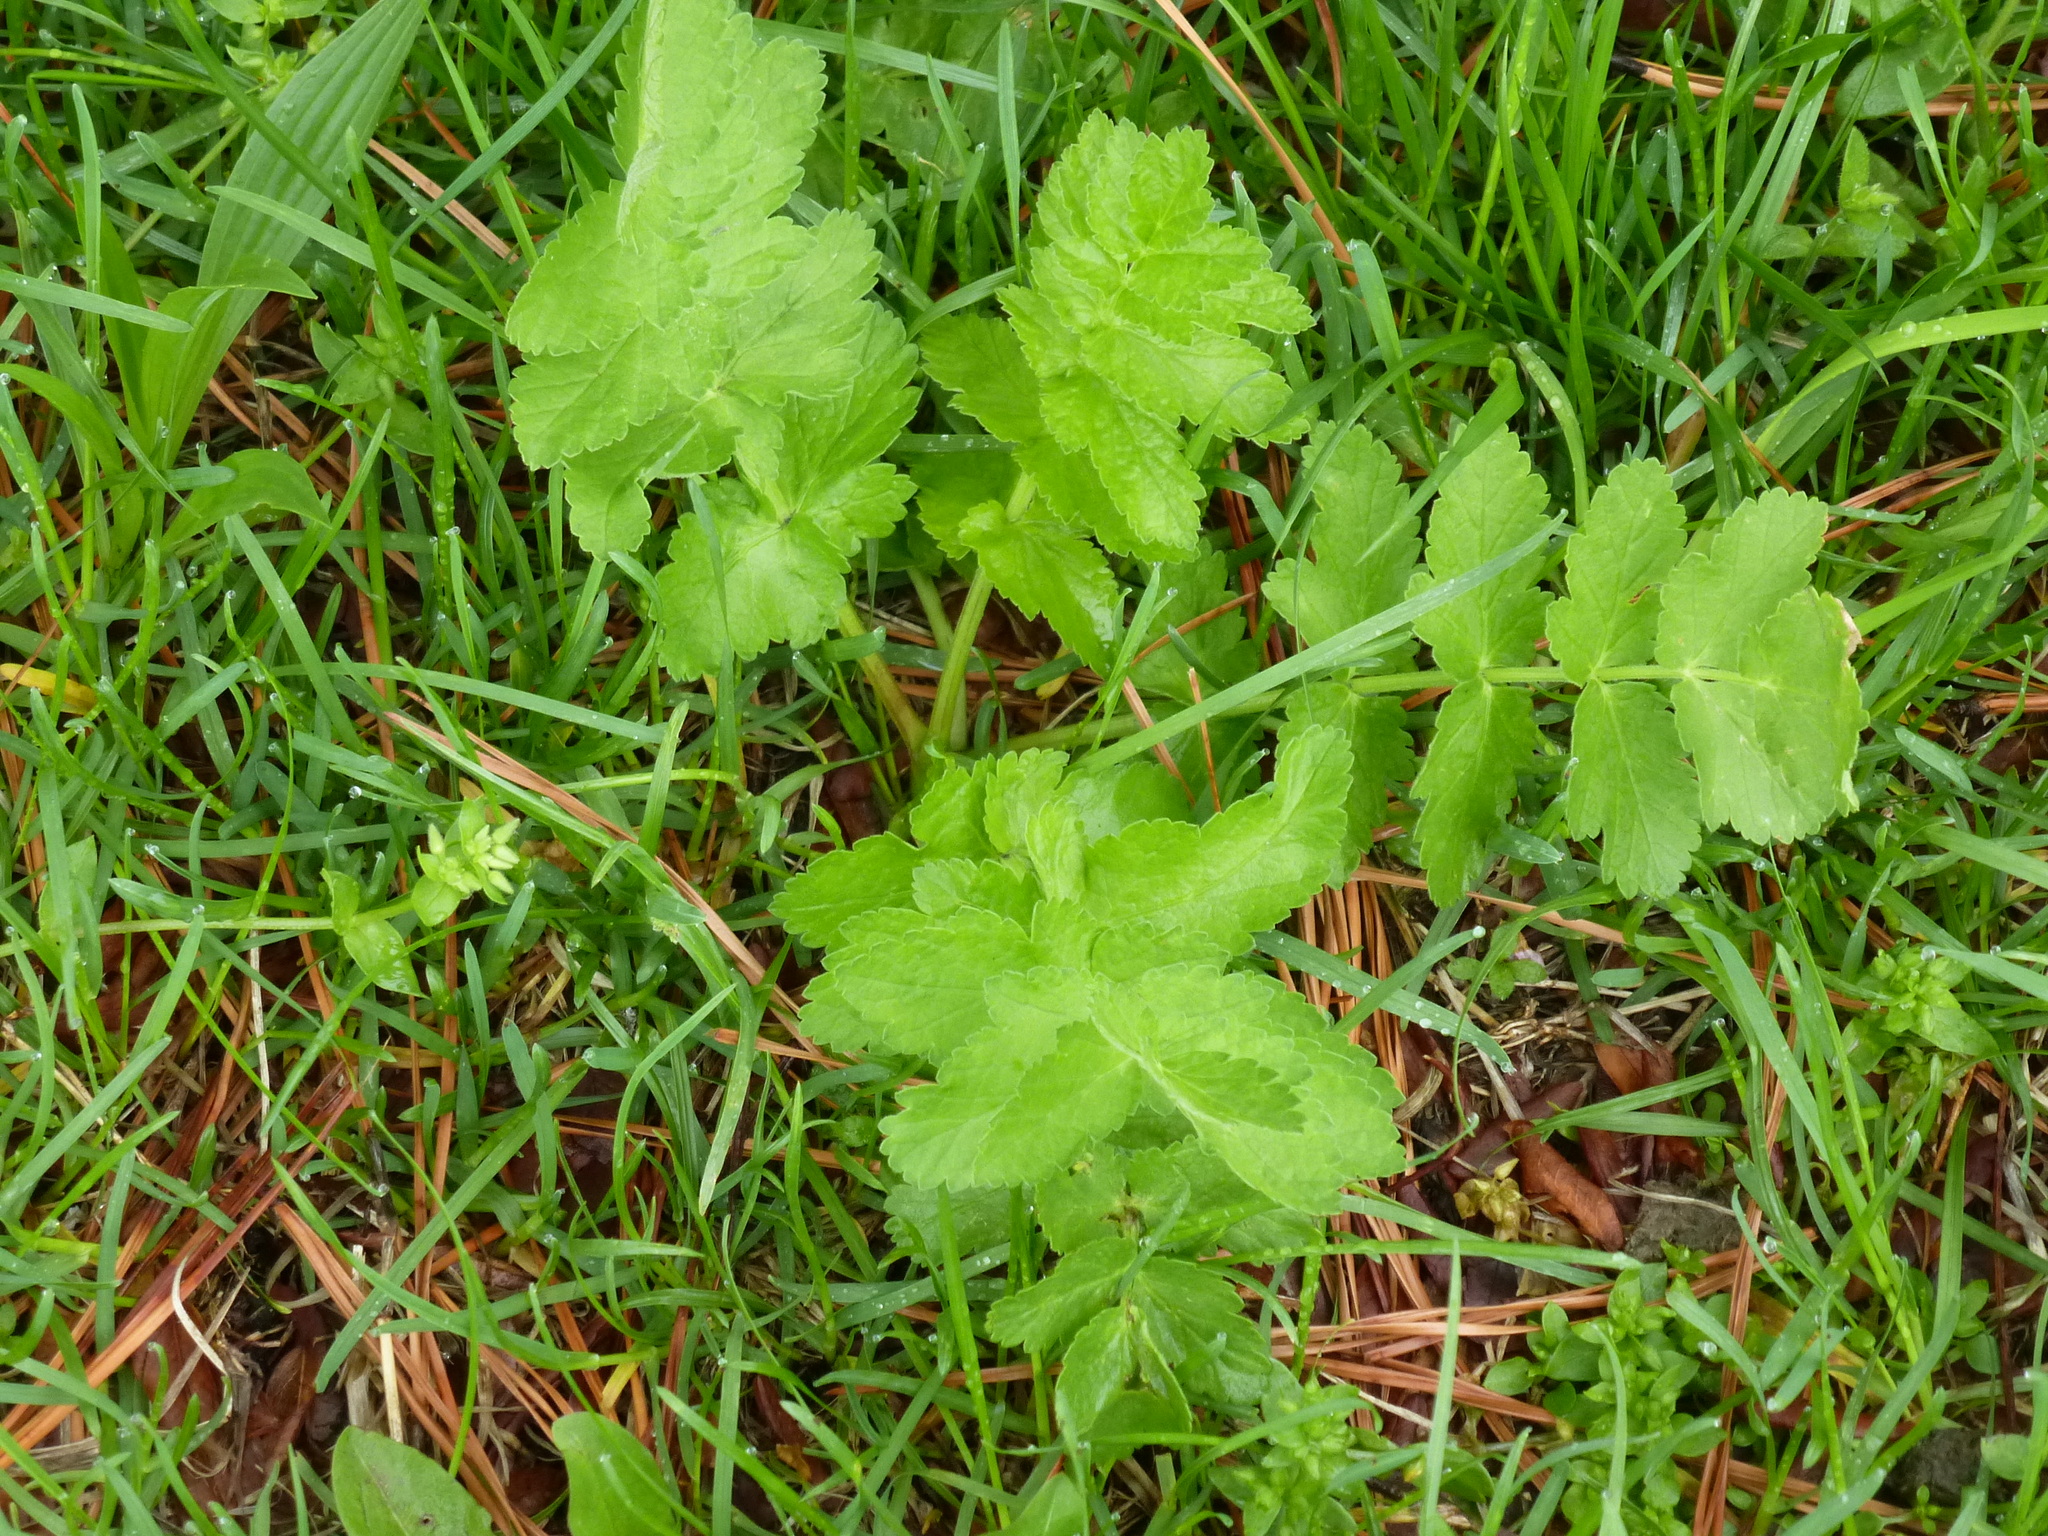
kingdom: Plantae
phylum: Tracheophyta
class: Magnoliopsida
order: Apiales
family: Apiaceae
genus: Pastinaca
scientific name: Pastinaca sativa
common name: Wild parsnip
